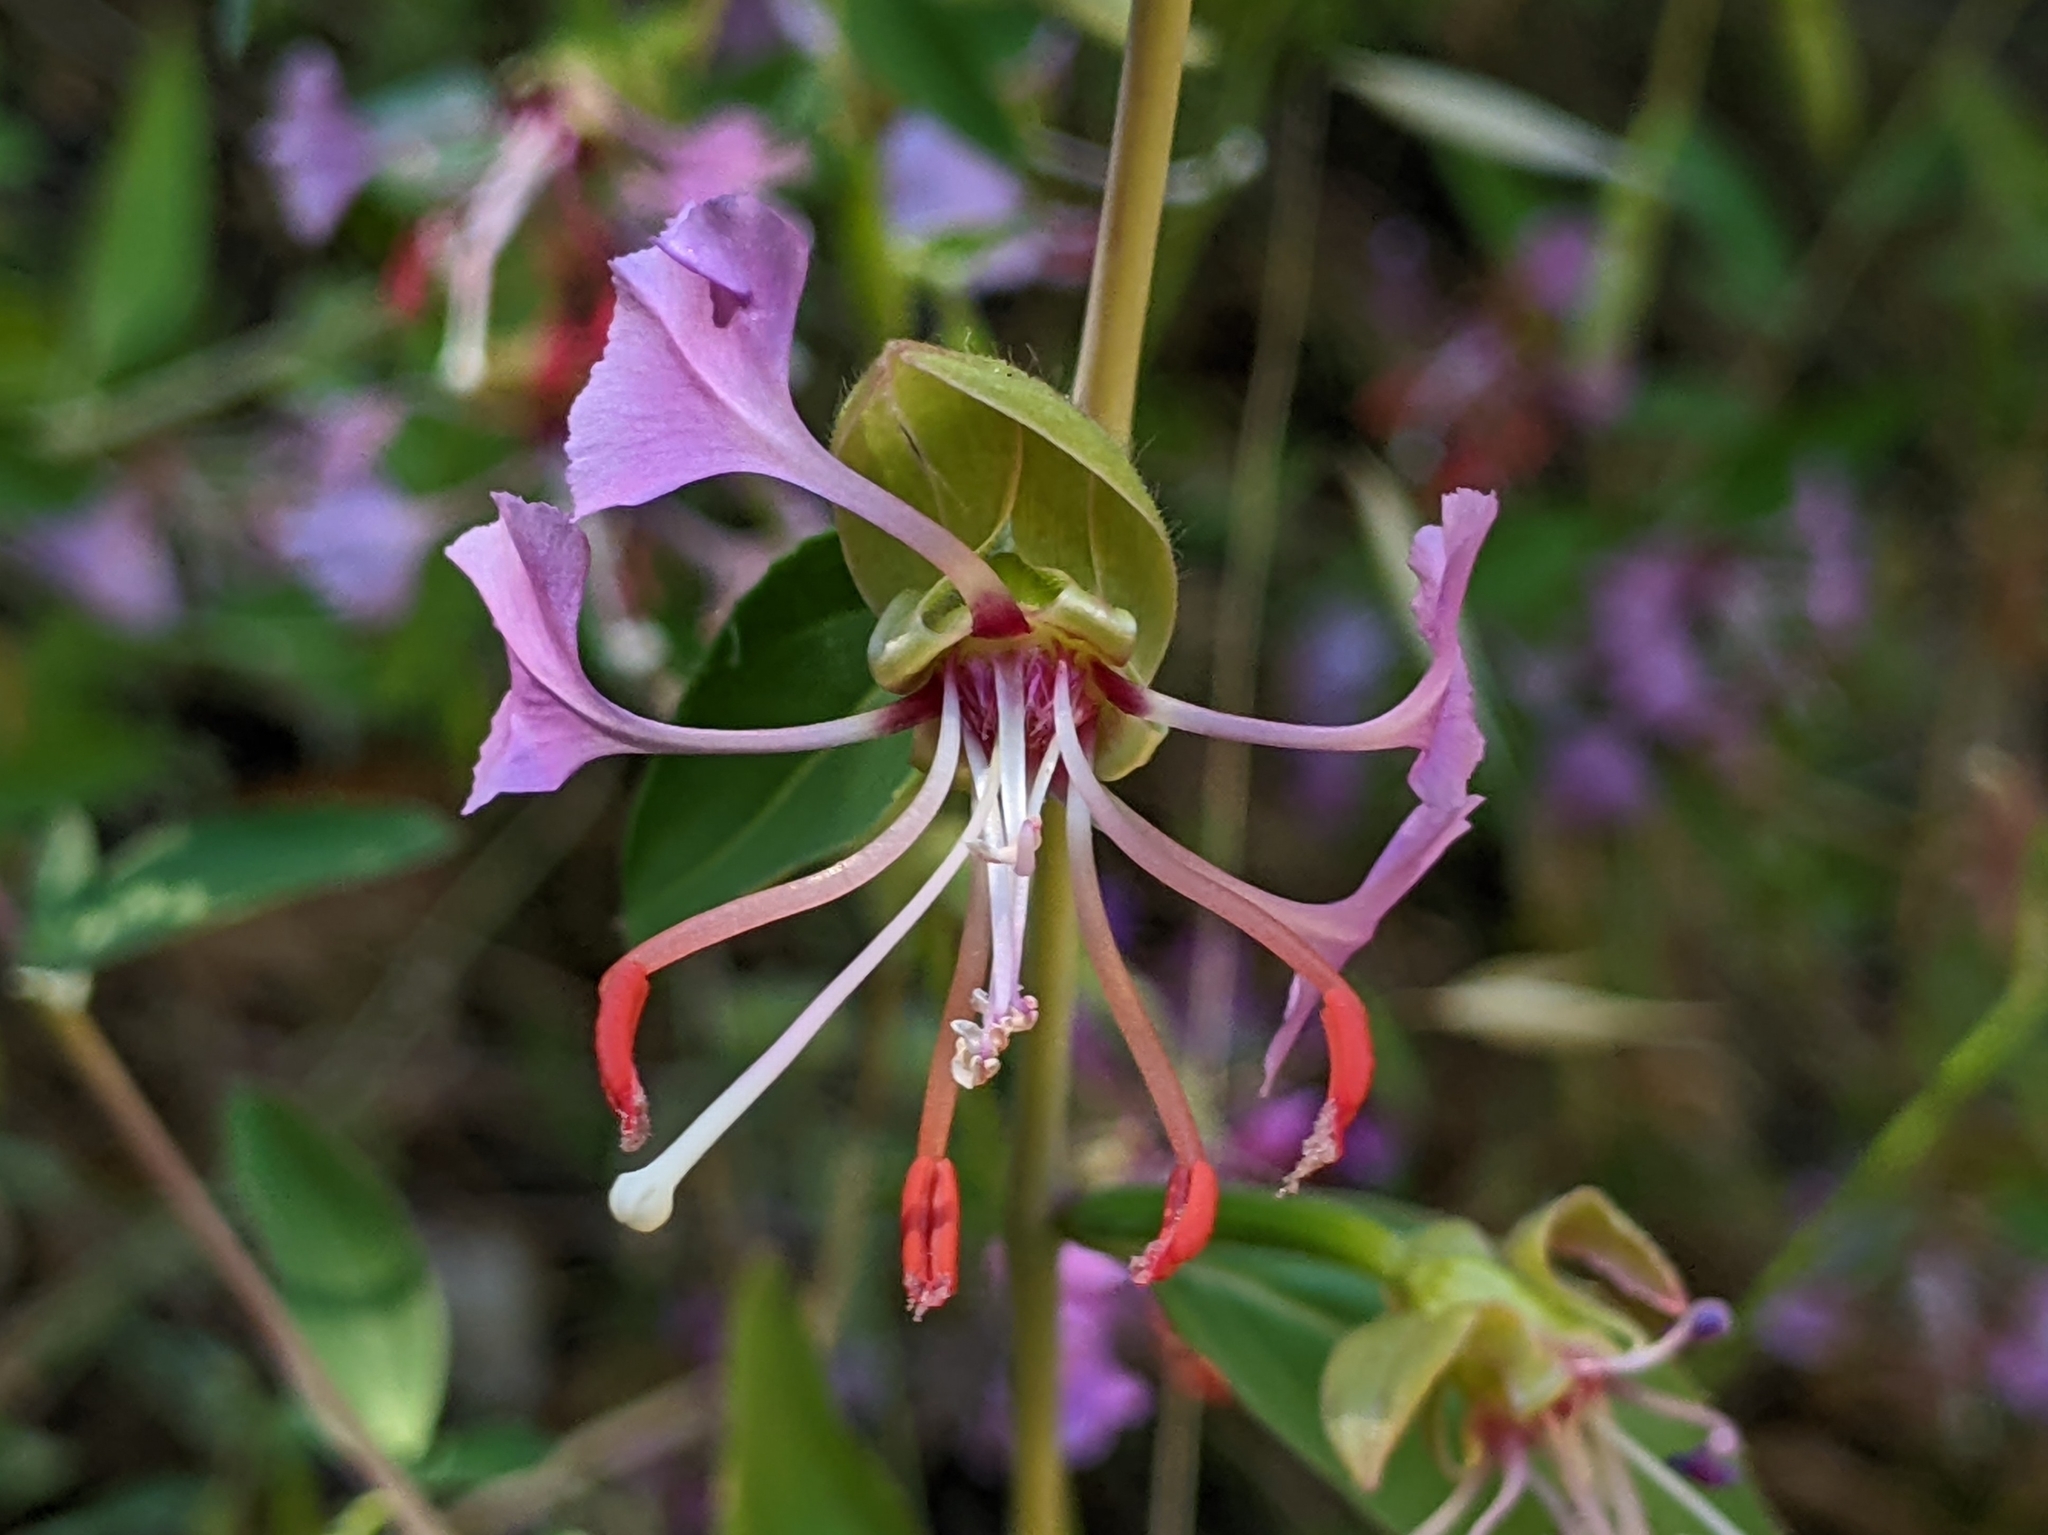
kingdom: Plantae
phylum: Tracheophyta
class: Magnoliopsida
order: Myrtales
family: Onagraceae
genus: Clarkia
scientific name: Clarkia unguiculata
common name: Clarkia
